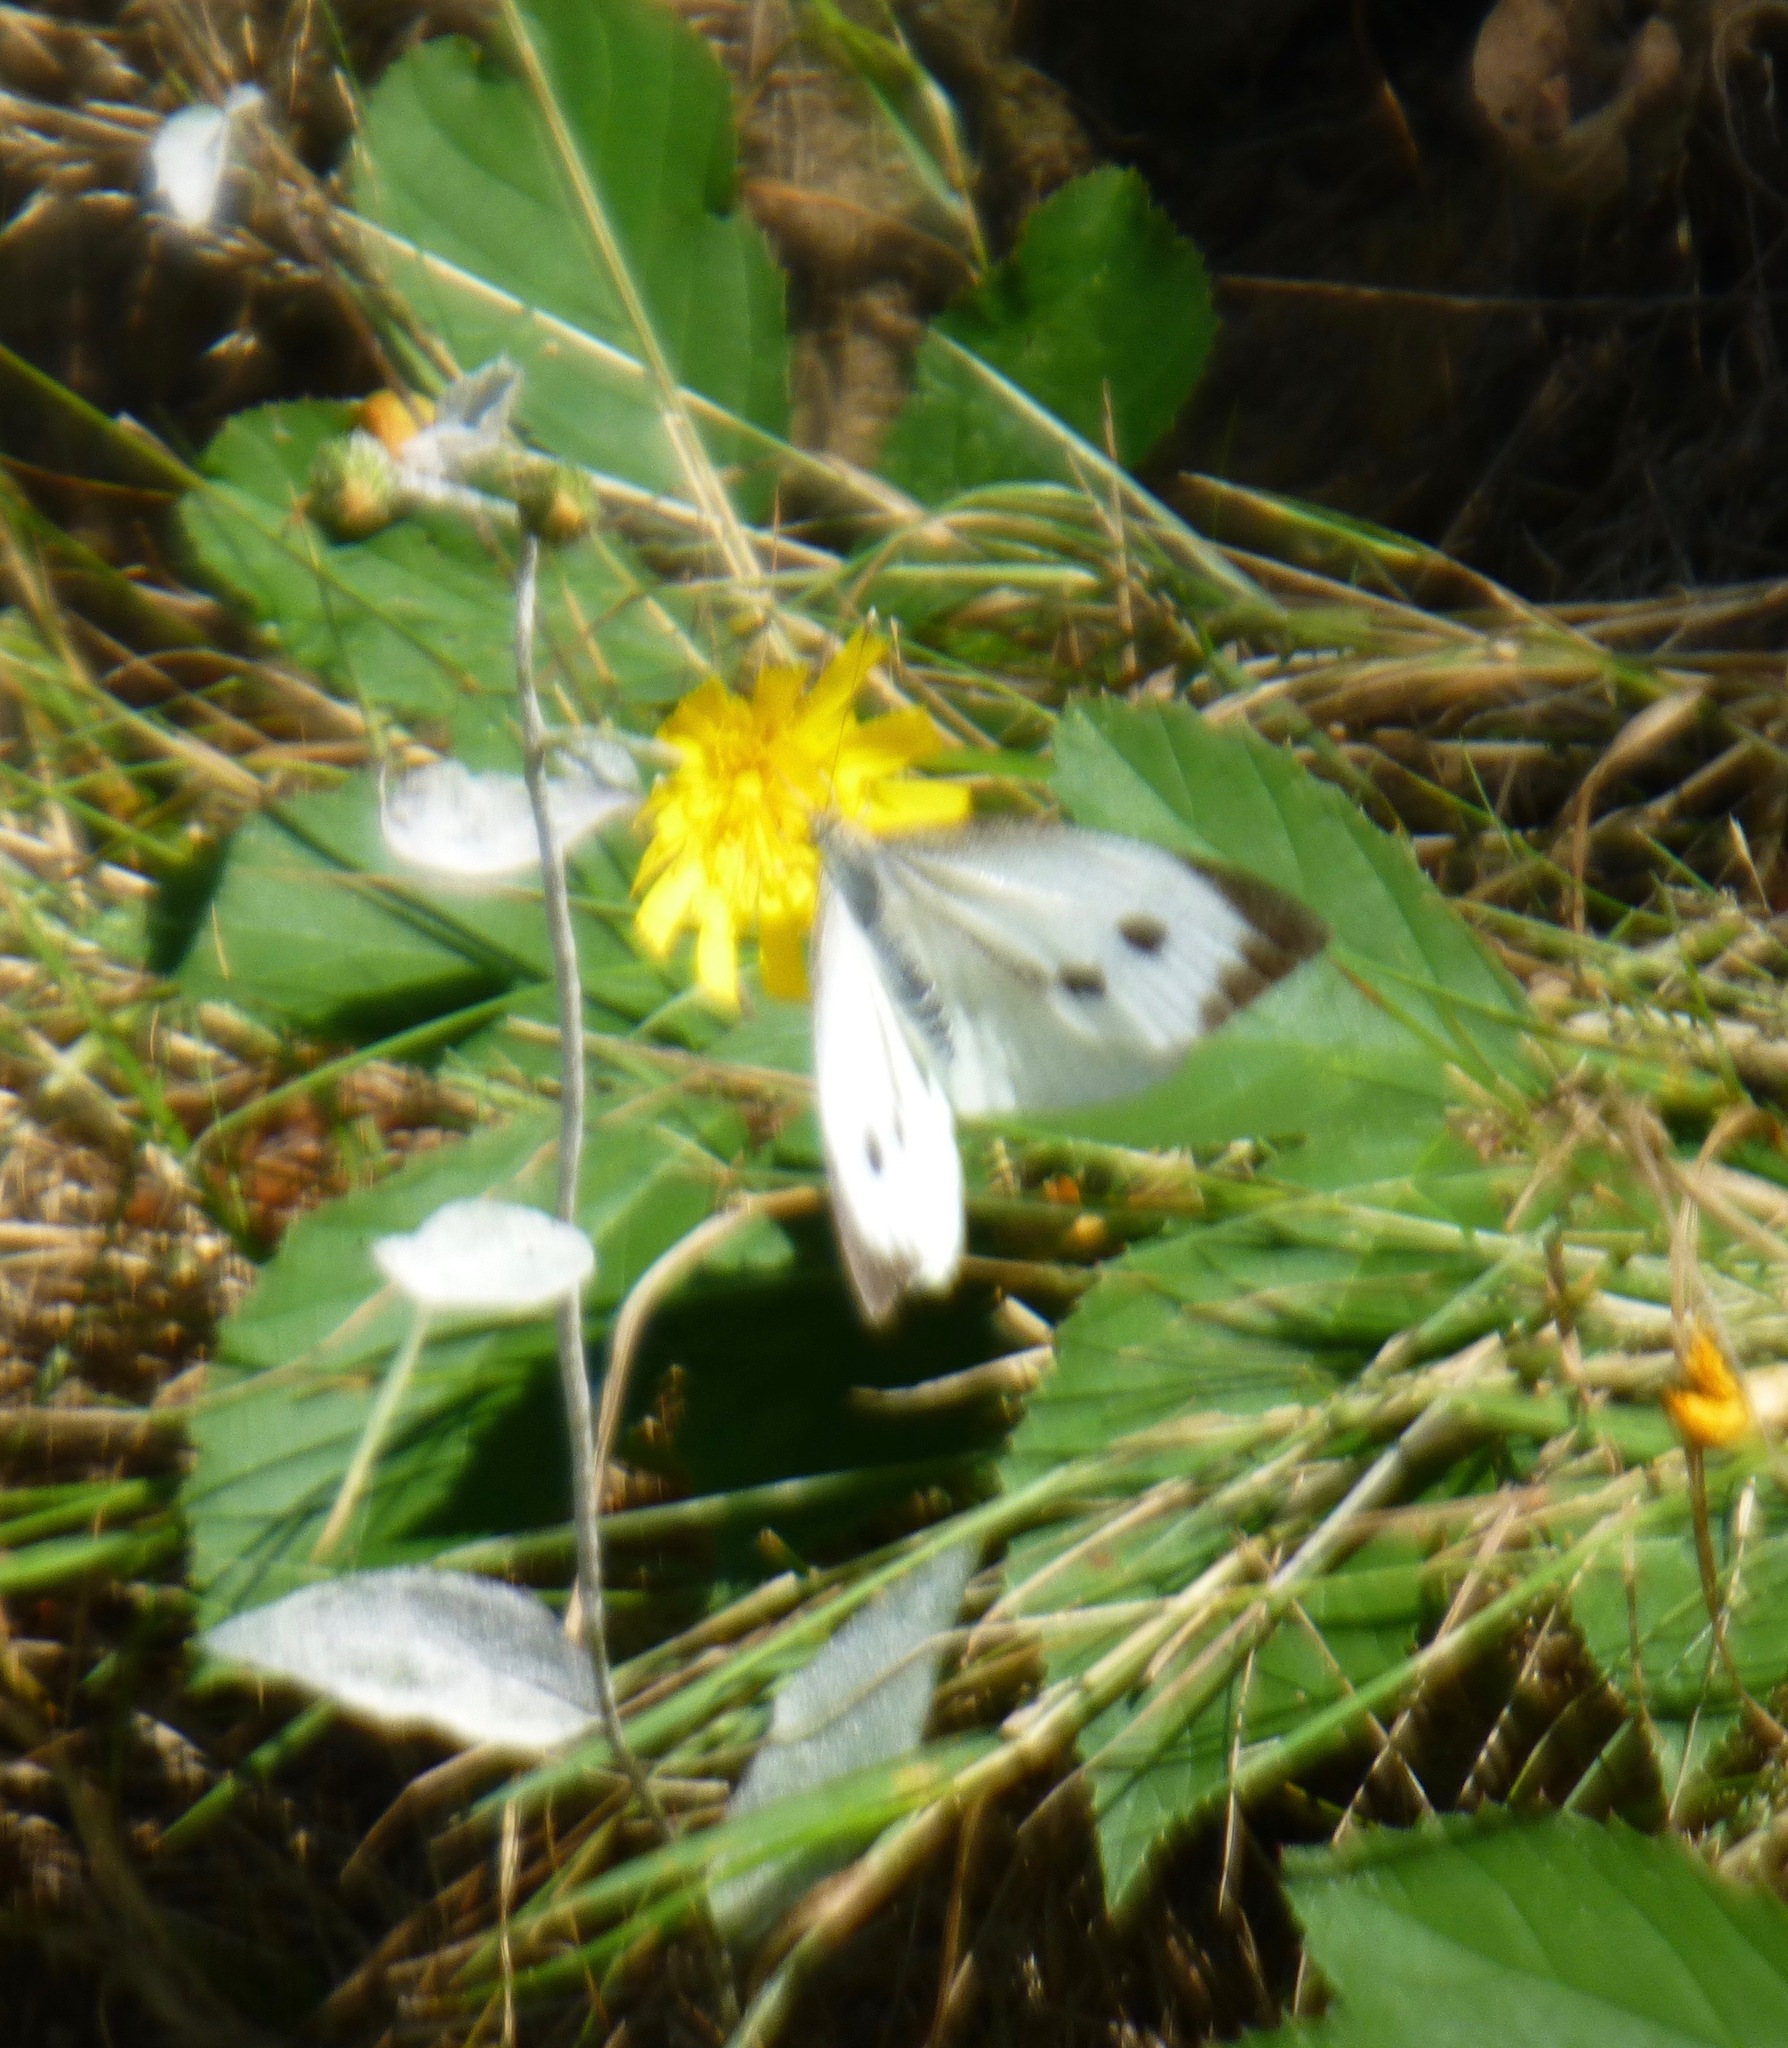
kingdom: Animalia
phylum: Arthropoda
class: Insecta
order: Lepidoptera
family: Pieridae
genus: Pieris
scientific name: Pieris brassicae
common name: Large white
